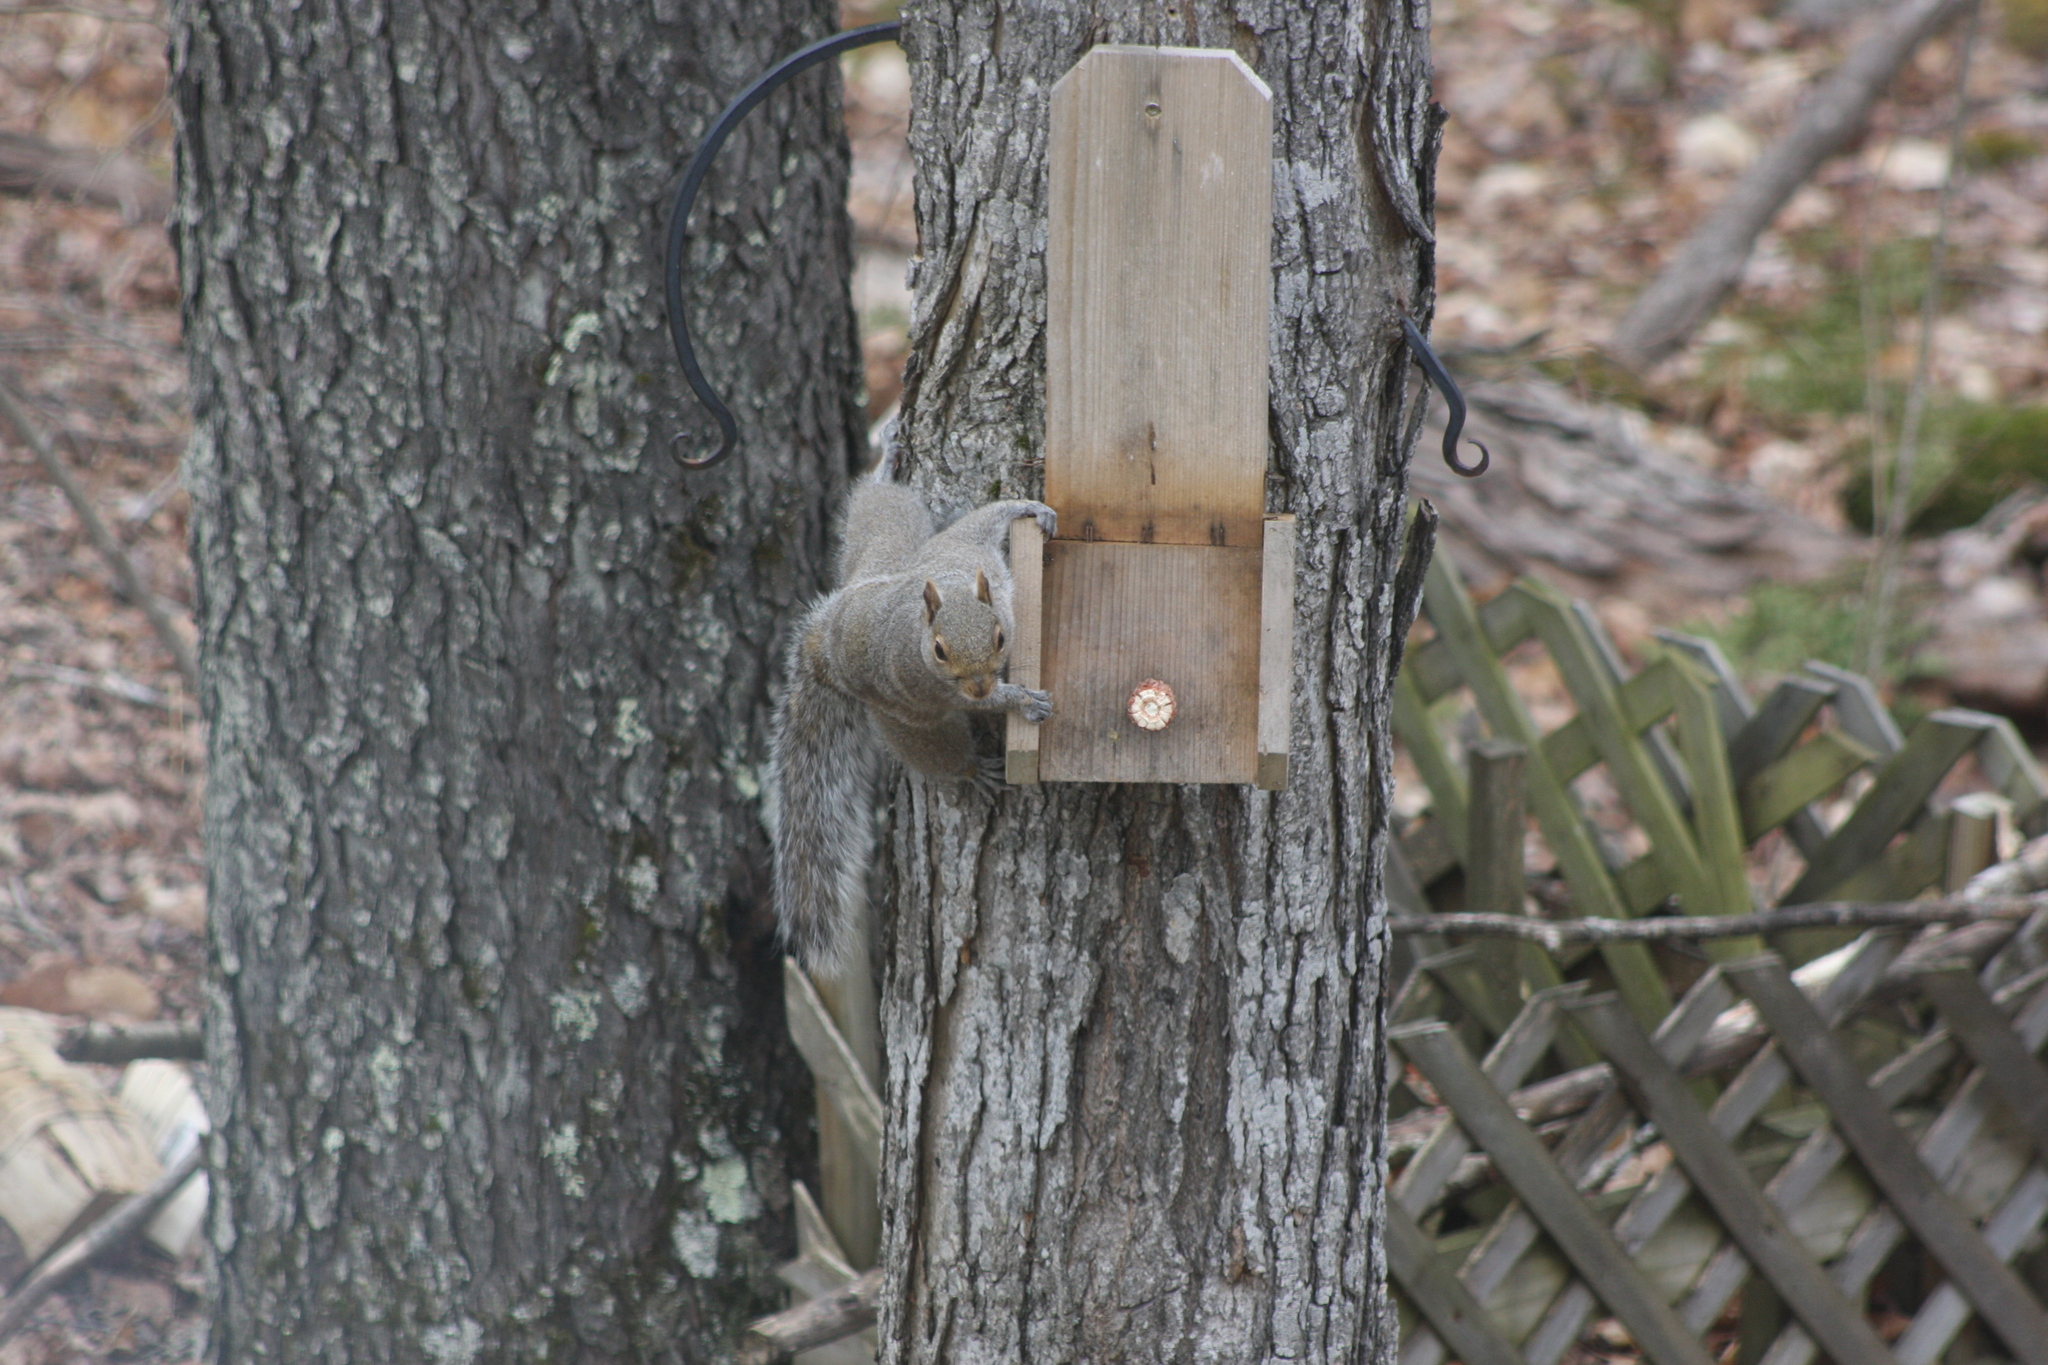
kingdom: Animalia
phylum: Chordata
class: Mammalia
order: Rodentia
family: Sciuridae
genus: Sciurus
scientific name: Sciurus carolinensis
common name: Eastern gray squirrel
